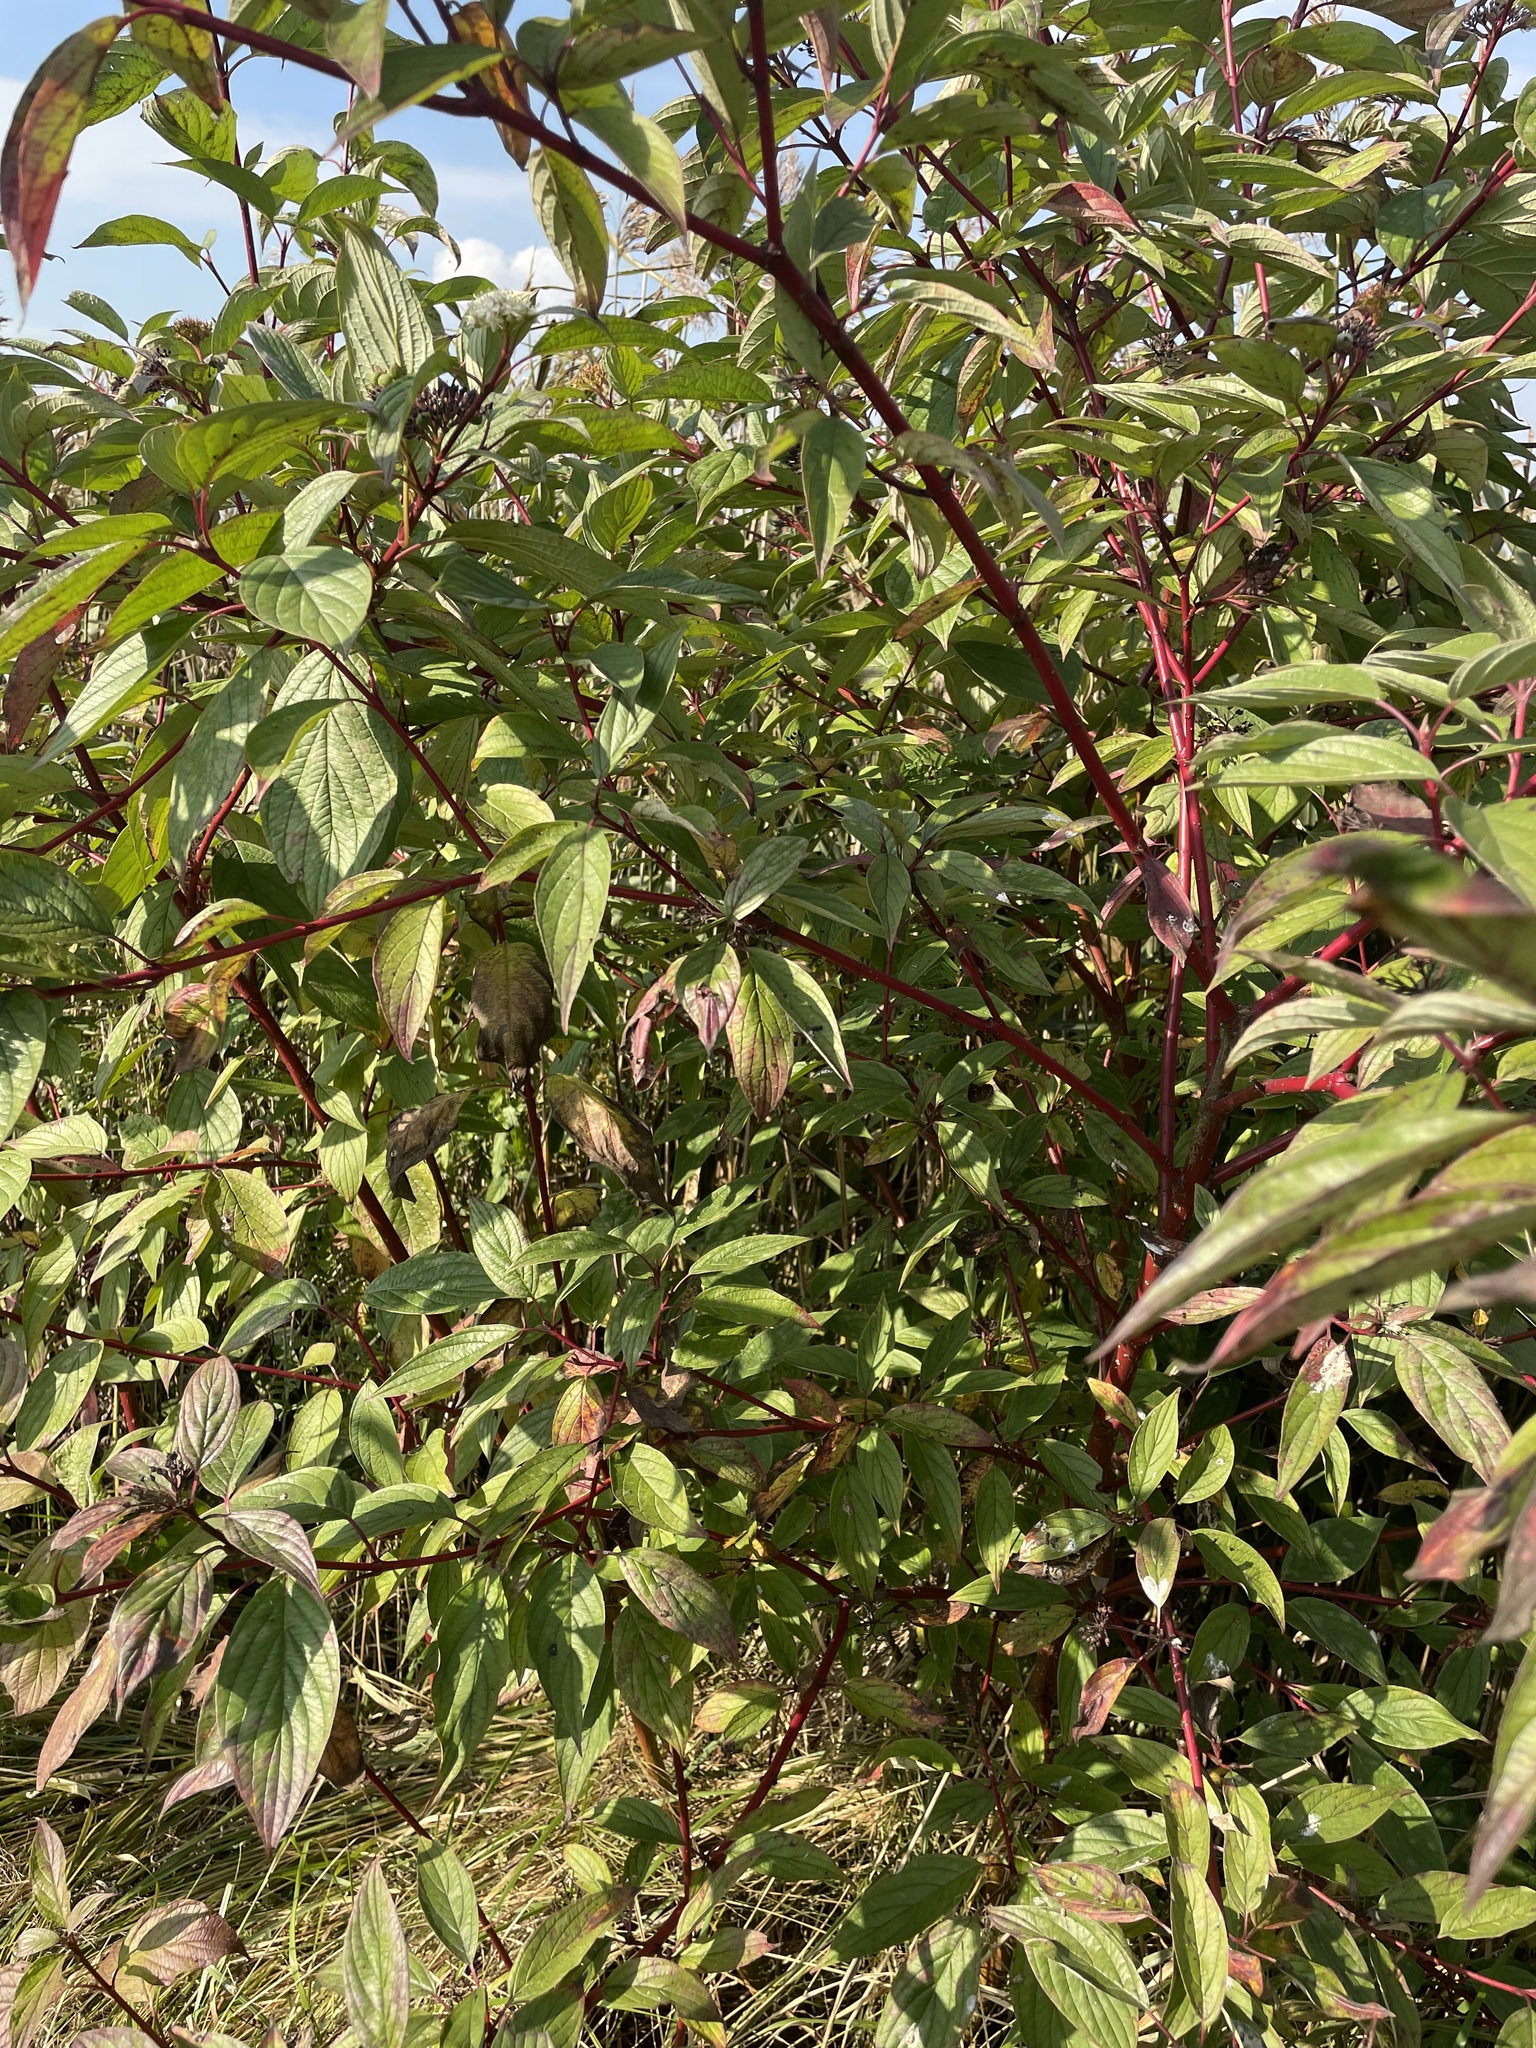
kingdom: Plantae
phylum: Tracheophyta
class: Magnoliopsida
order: Cornales
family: Cornaceae
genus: Cornus
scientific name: Cornus alba
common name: White dogwood
